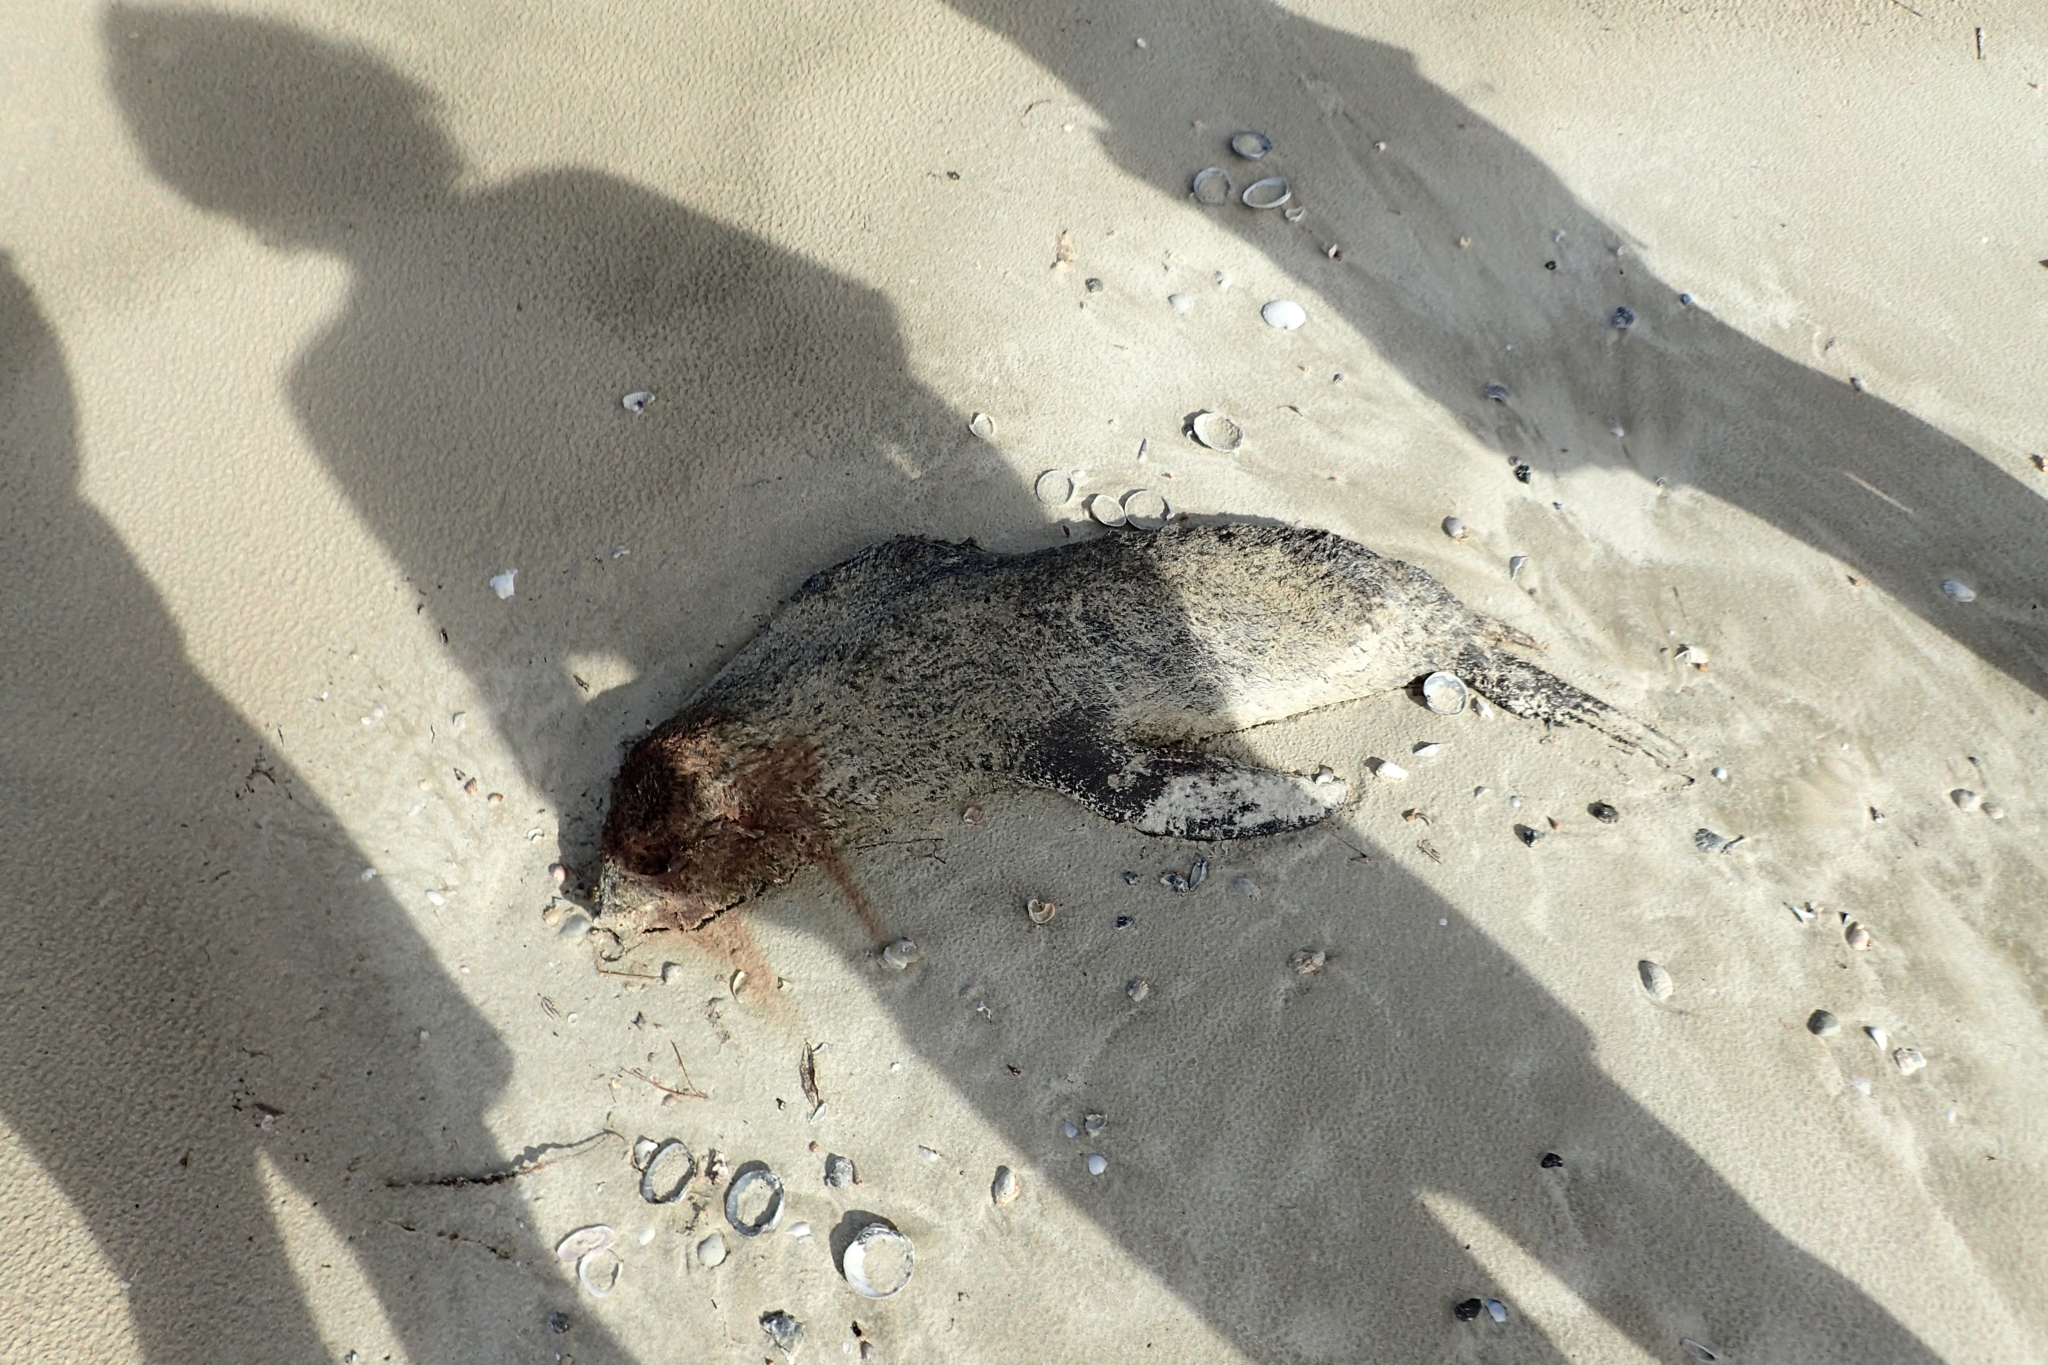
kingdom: Animalia
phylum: Chordata
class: Mammalia
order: Carnivora
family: Otariidae
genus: Arctocephalus
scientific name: Arctocephalus forsteri
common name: New zealand fur seal
